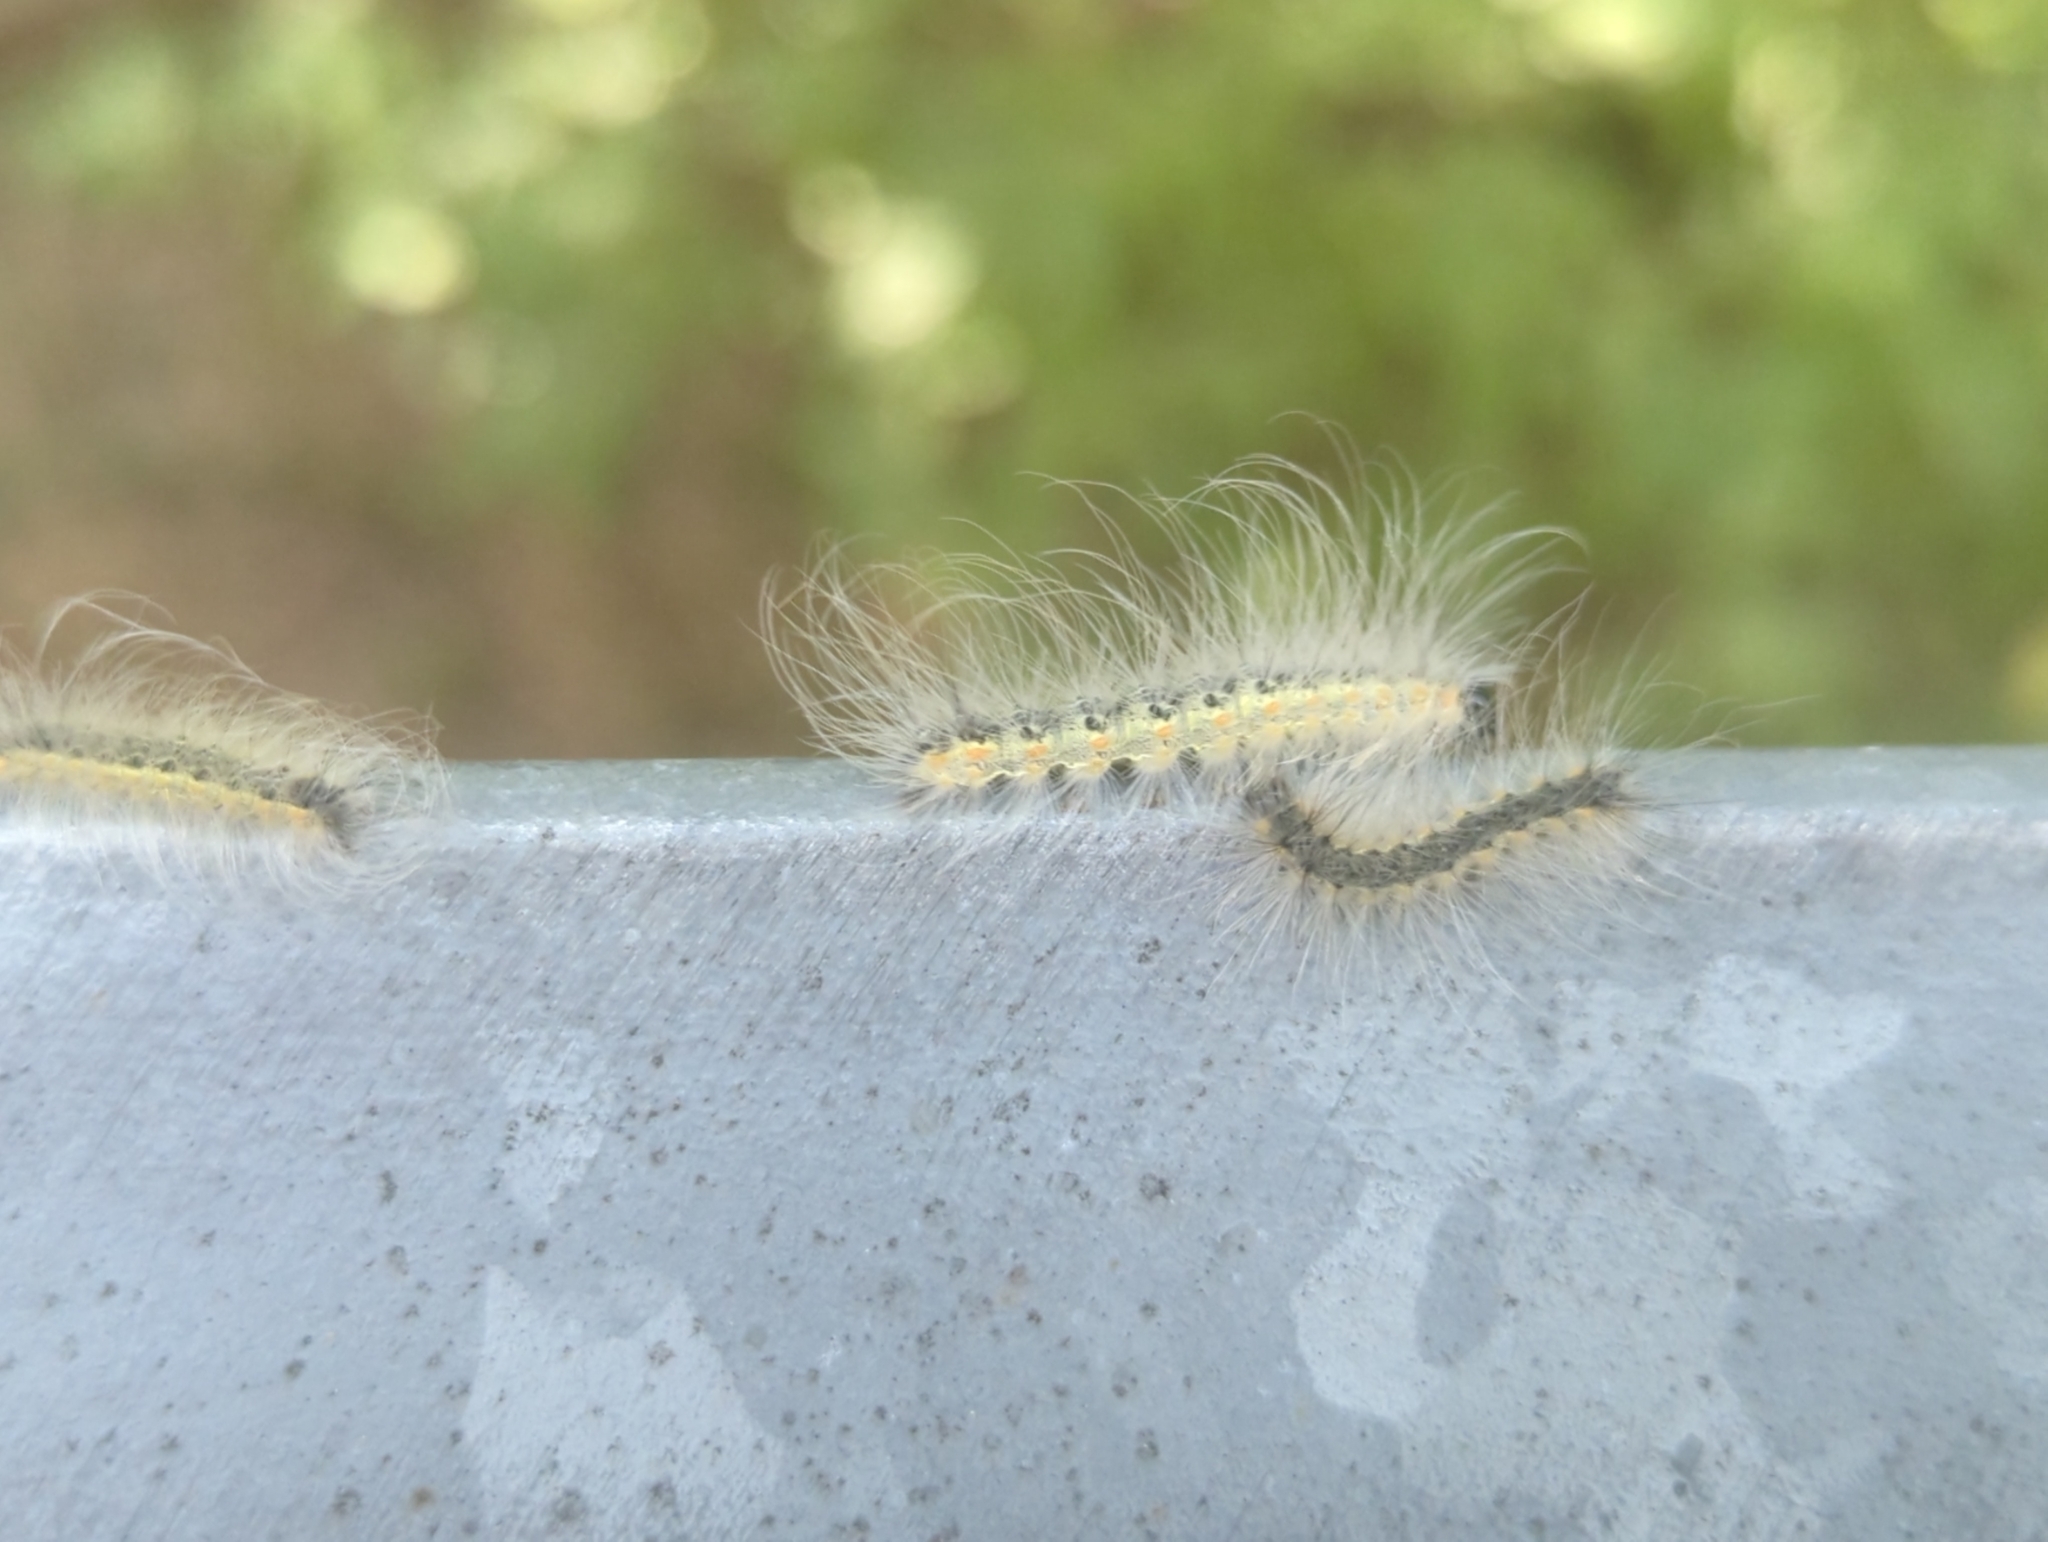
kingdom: Animalia
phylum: Arthropoda
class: Insecta
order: Lepidoptera
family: Erebidae
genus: Hyphantria
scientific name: Hyphantria cunea
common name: American white moth
